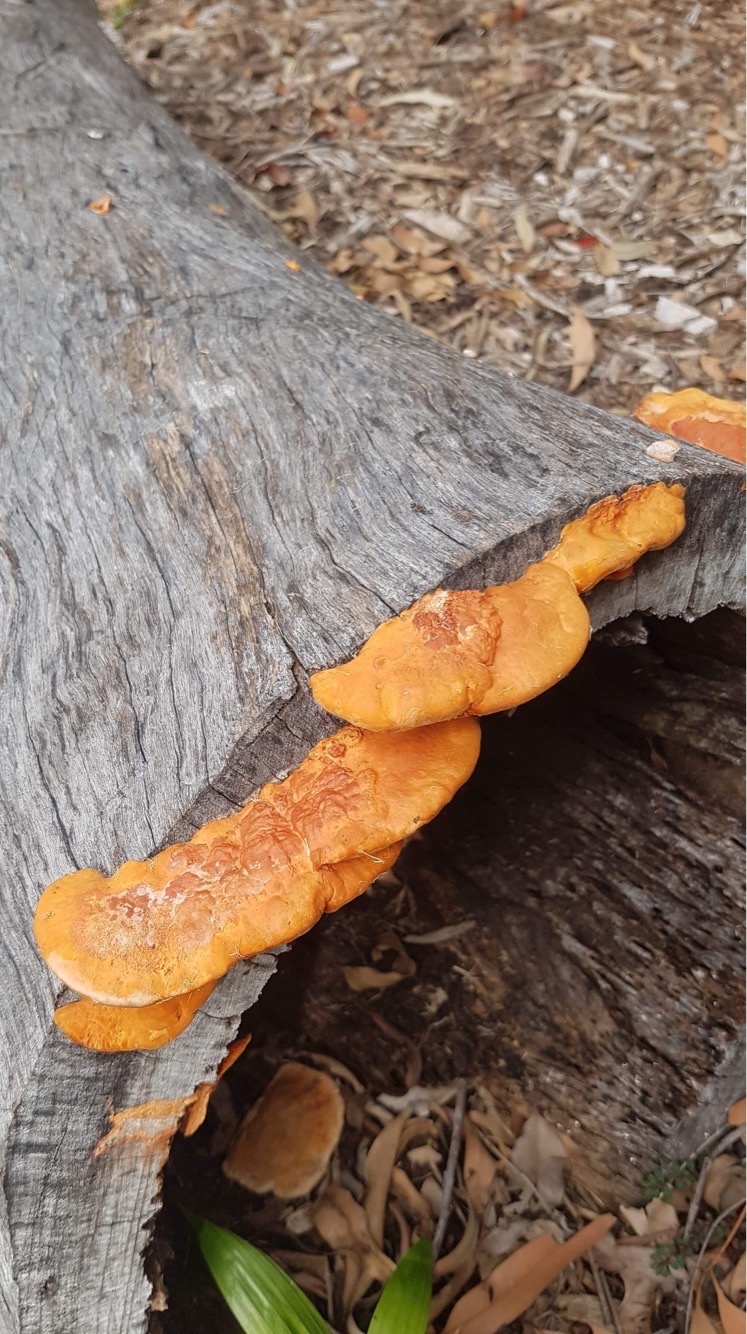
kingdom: Fungi
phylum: Basidiomycota
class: Agaricomycetes
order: Polyporales
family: Polyporaceae
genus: Trametes
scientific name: Trametes coccinea
